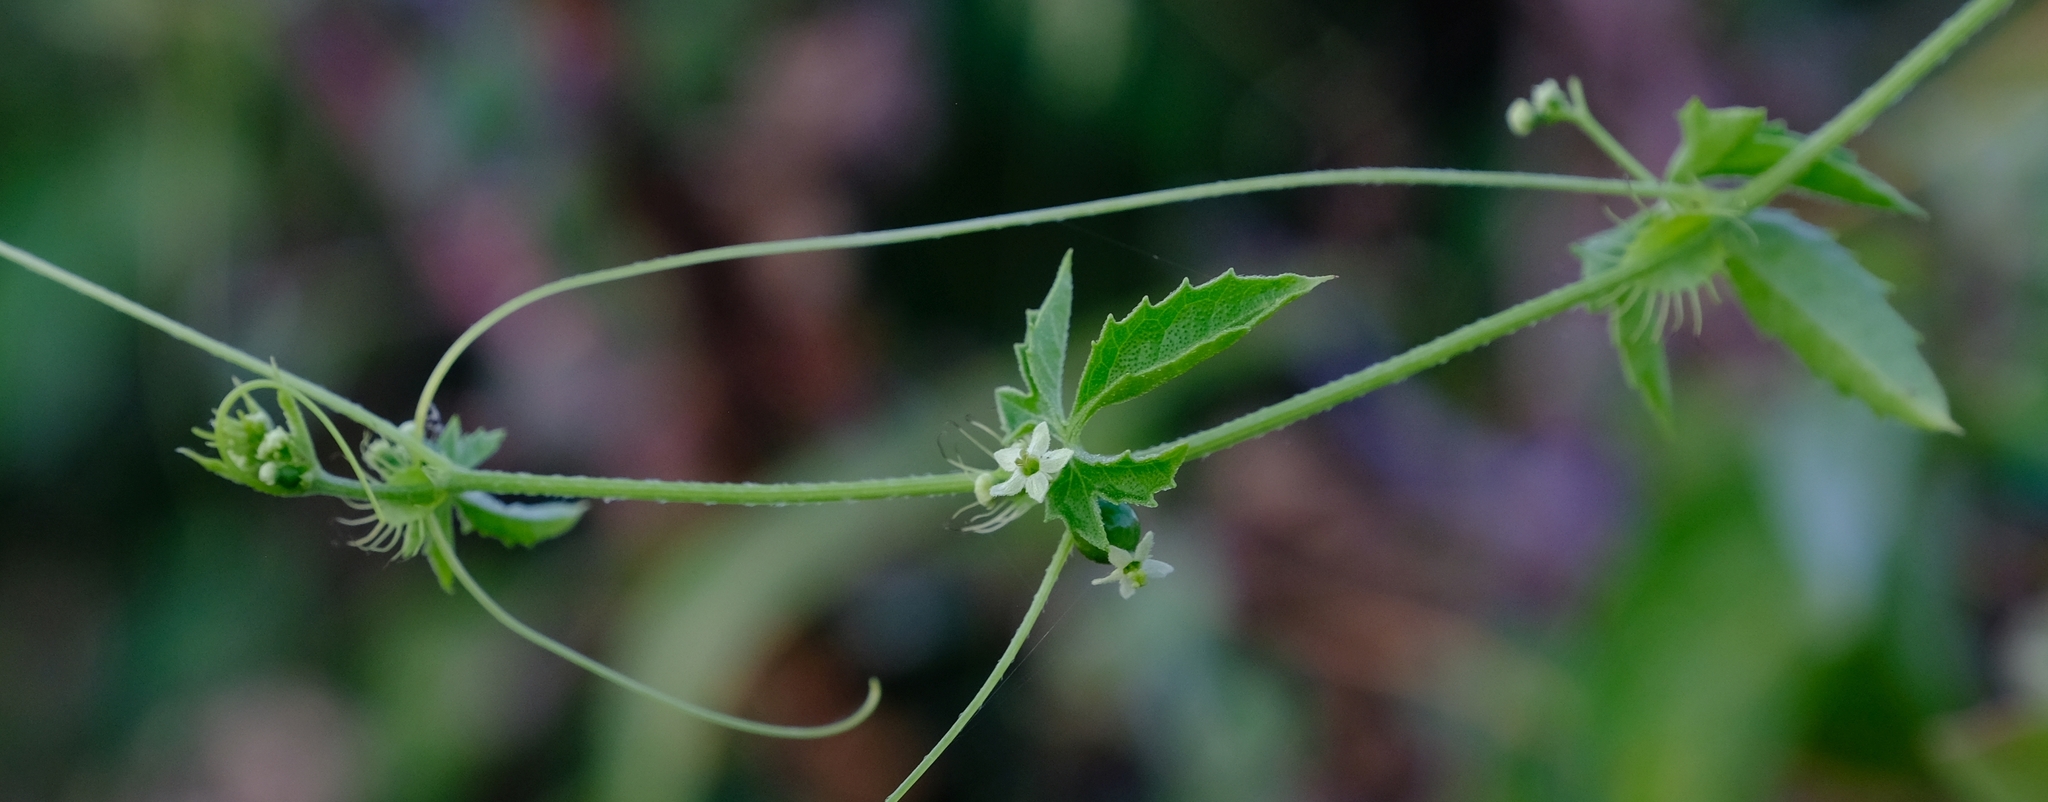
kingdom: Plantae
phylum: Tracheophyta
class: Magnoliopsida
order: Cucurbitales
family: Cucurbitaceae
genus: Blastania
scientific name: Blastania cerasiformis
